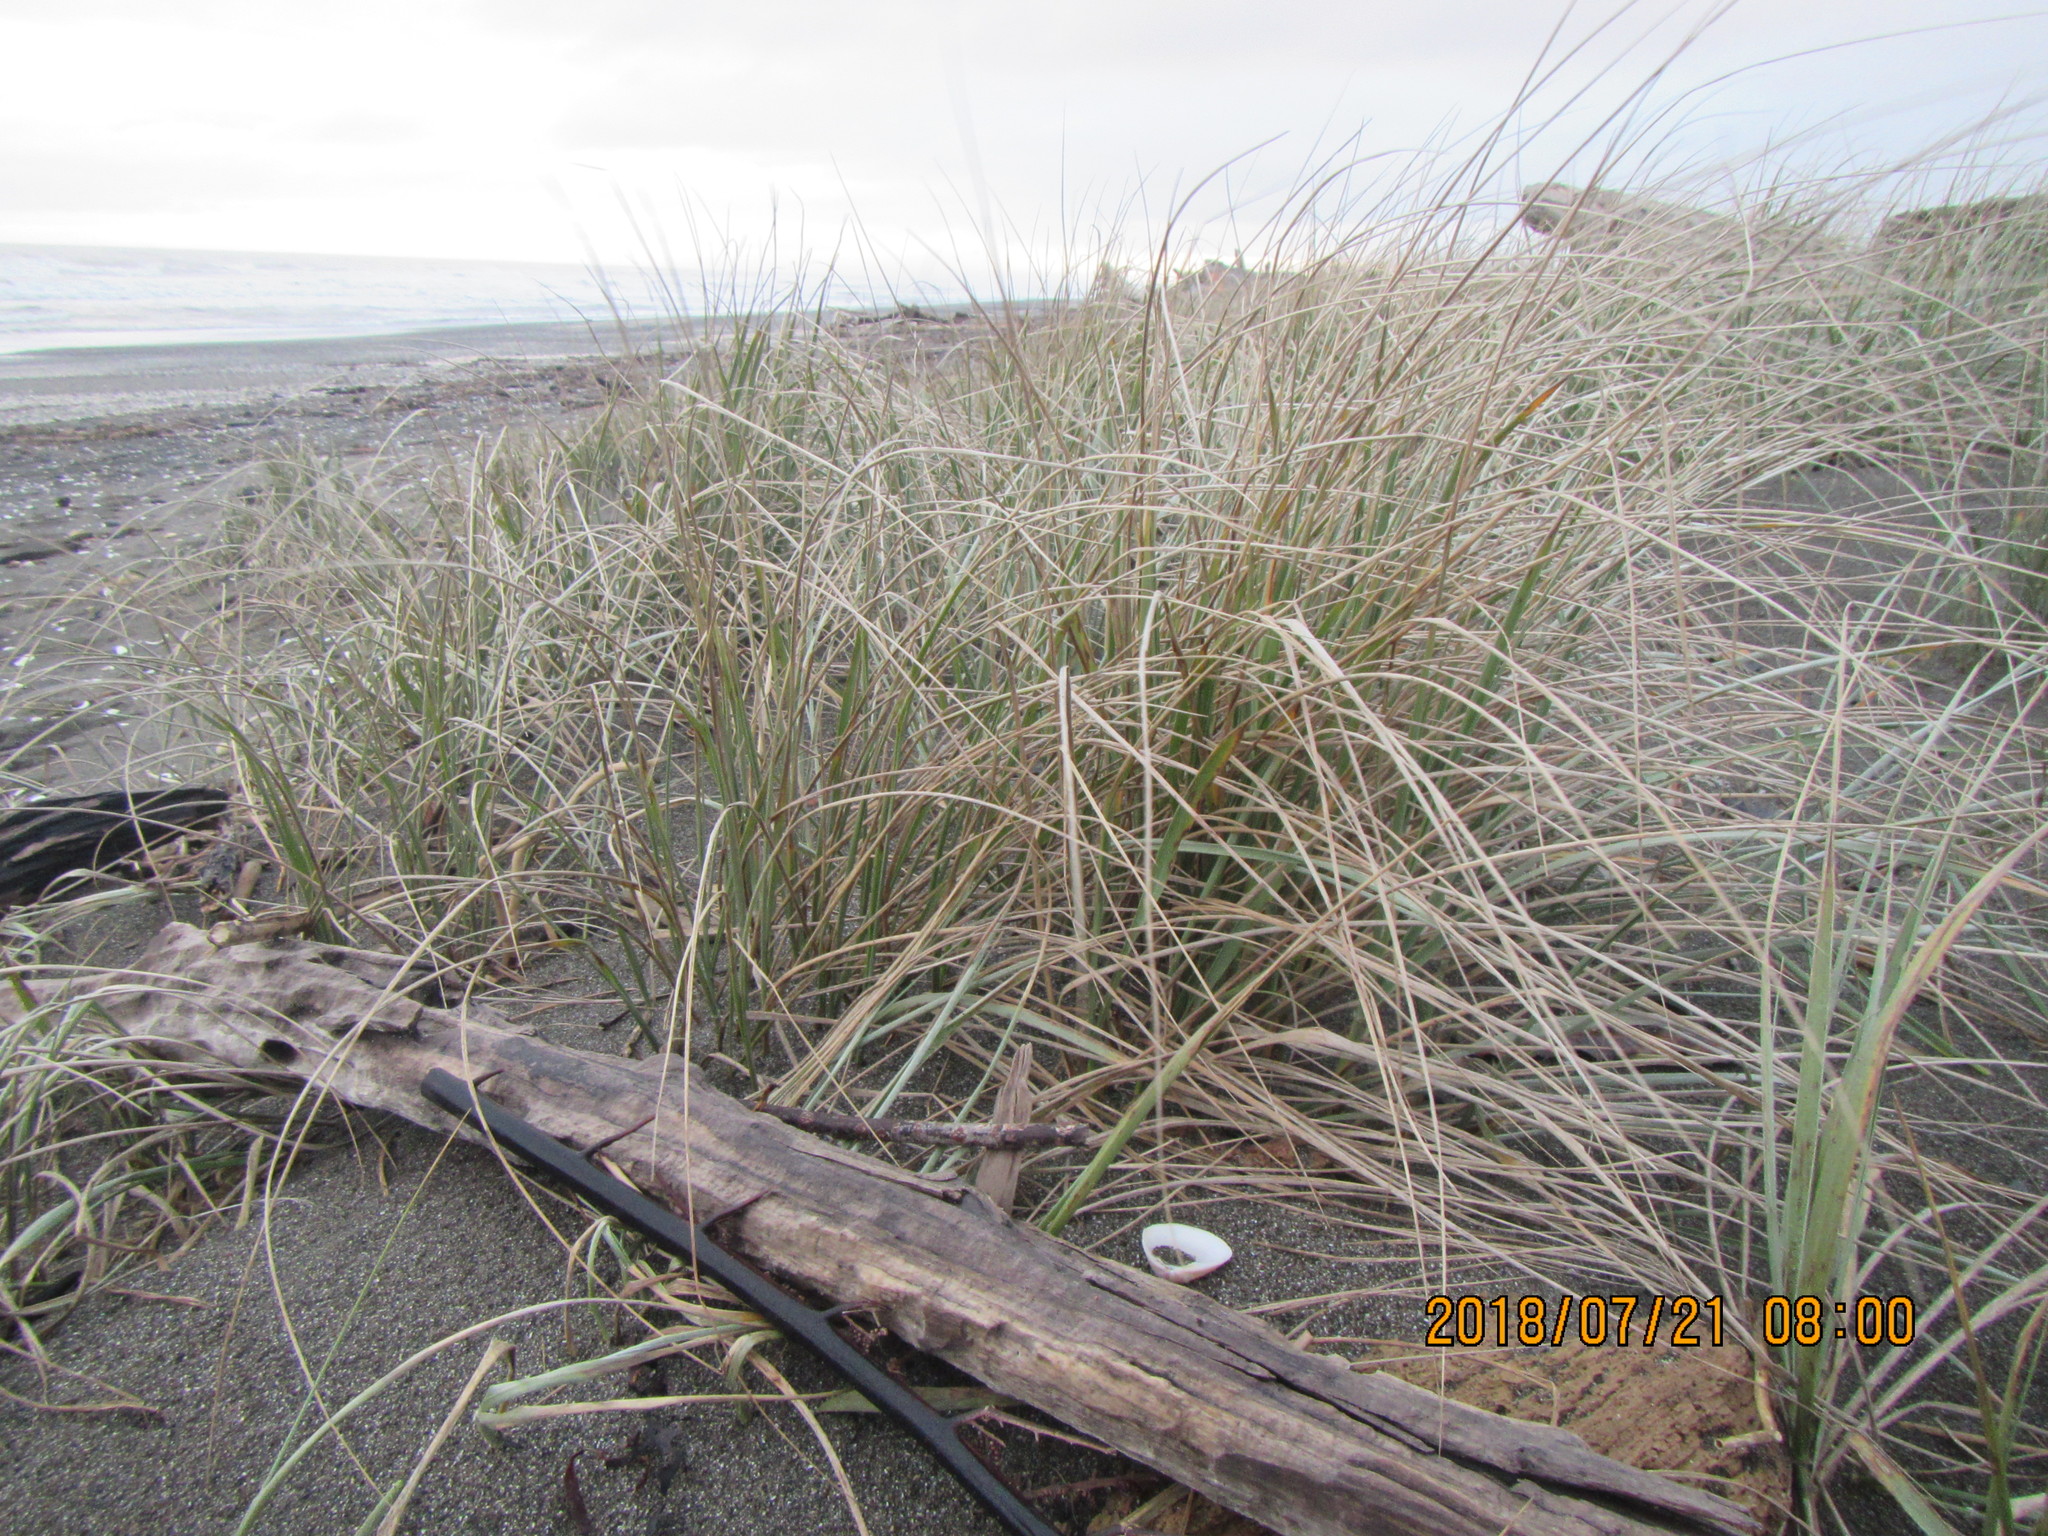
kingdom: Plantae
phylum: Tracheophyta
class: Liliopsida
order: Poales
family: Poaceae
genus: Spinifex
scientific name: Spinifex sericeus
